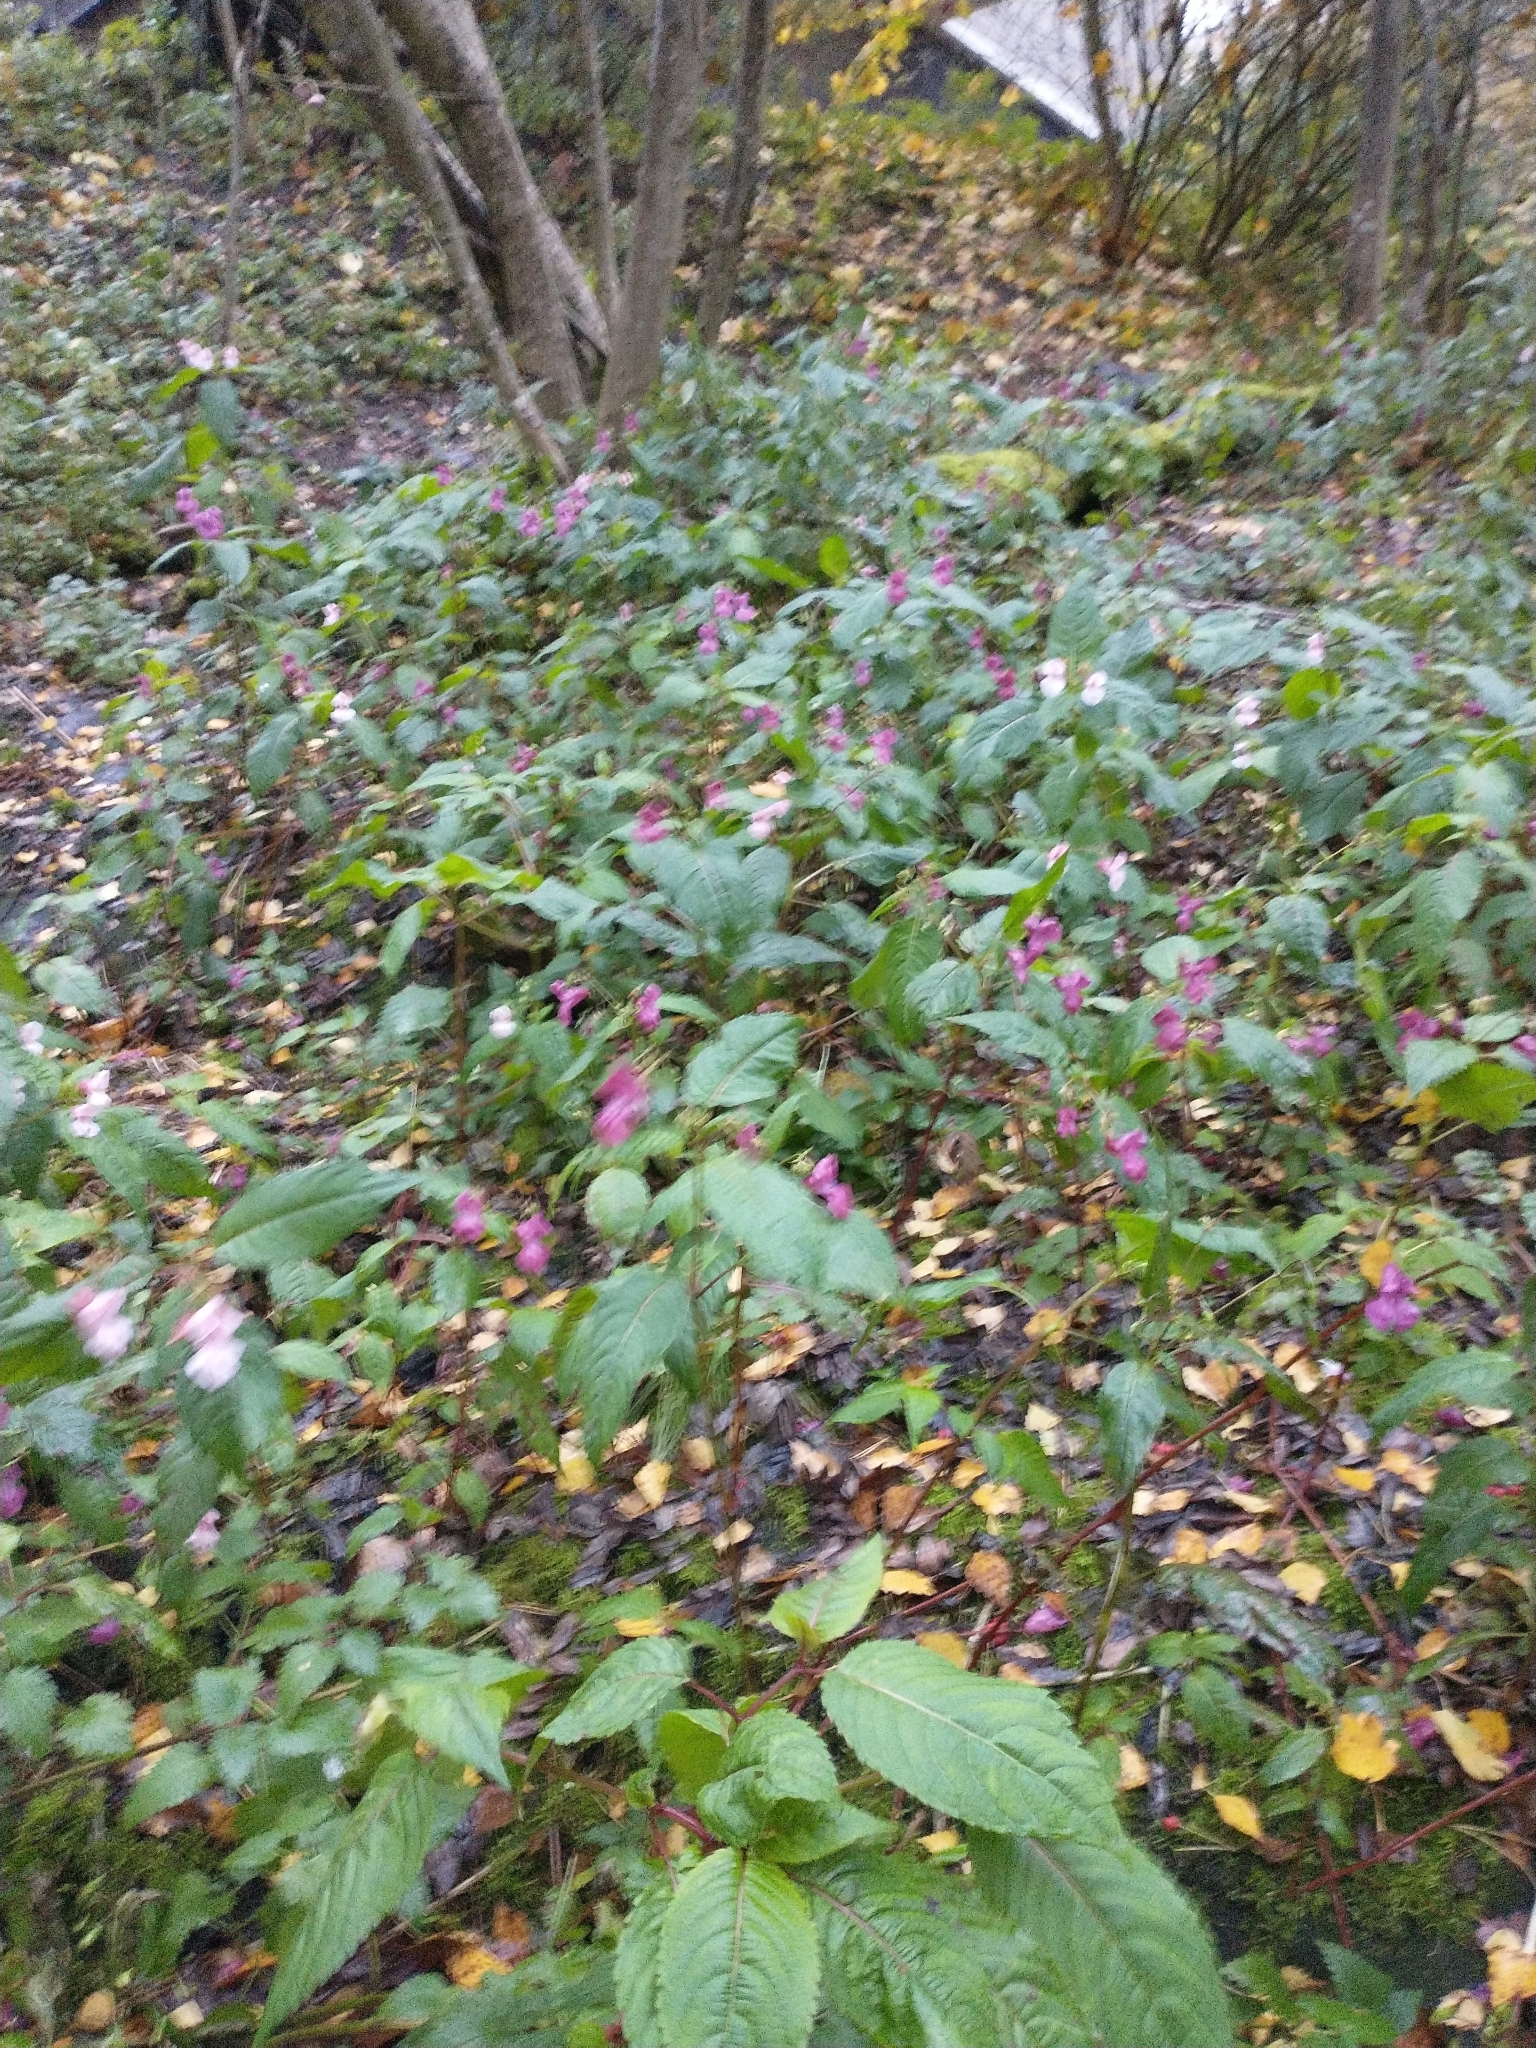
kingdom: Plantae
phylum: Tracheophyta
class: Magnoliopsida
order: Ericales
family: Balsaminaceae
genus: Impatiens
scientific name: Impatiens glandulifera
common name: Himalayan balsam
